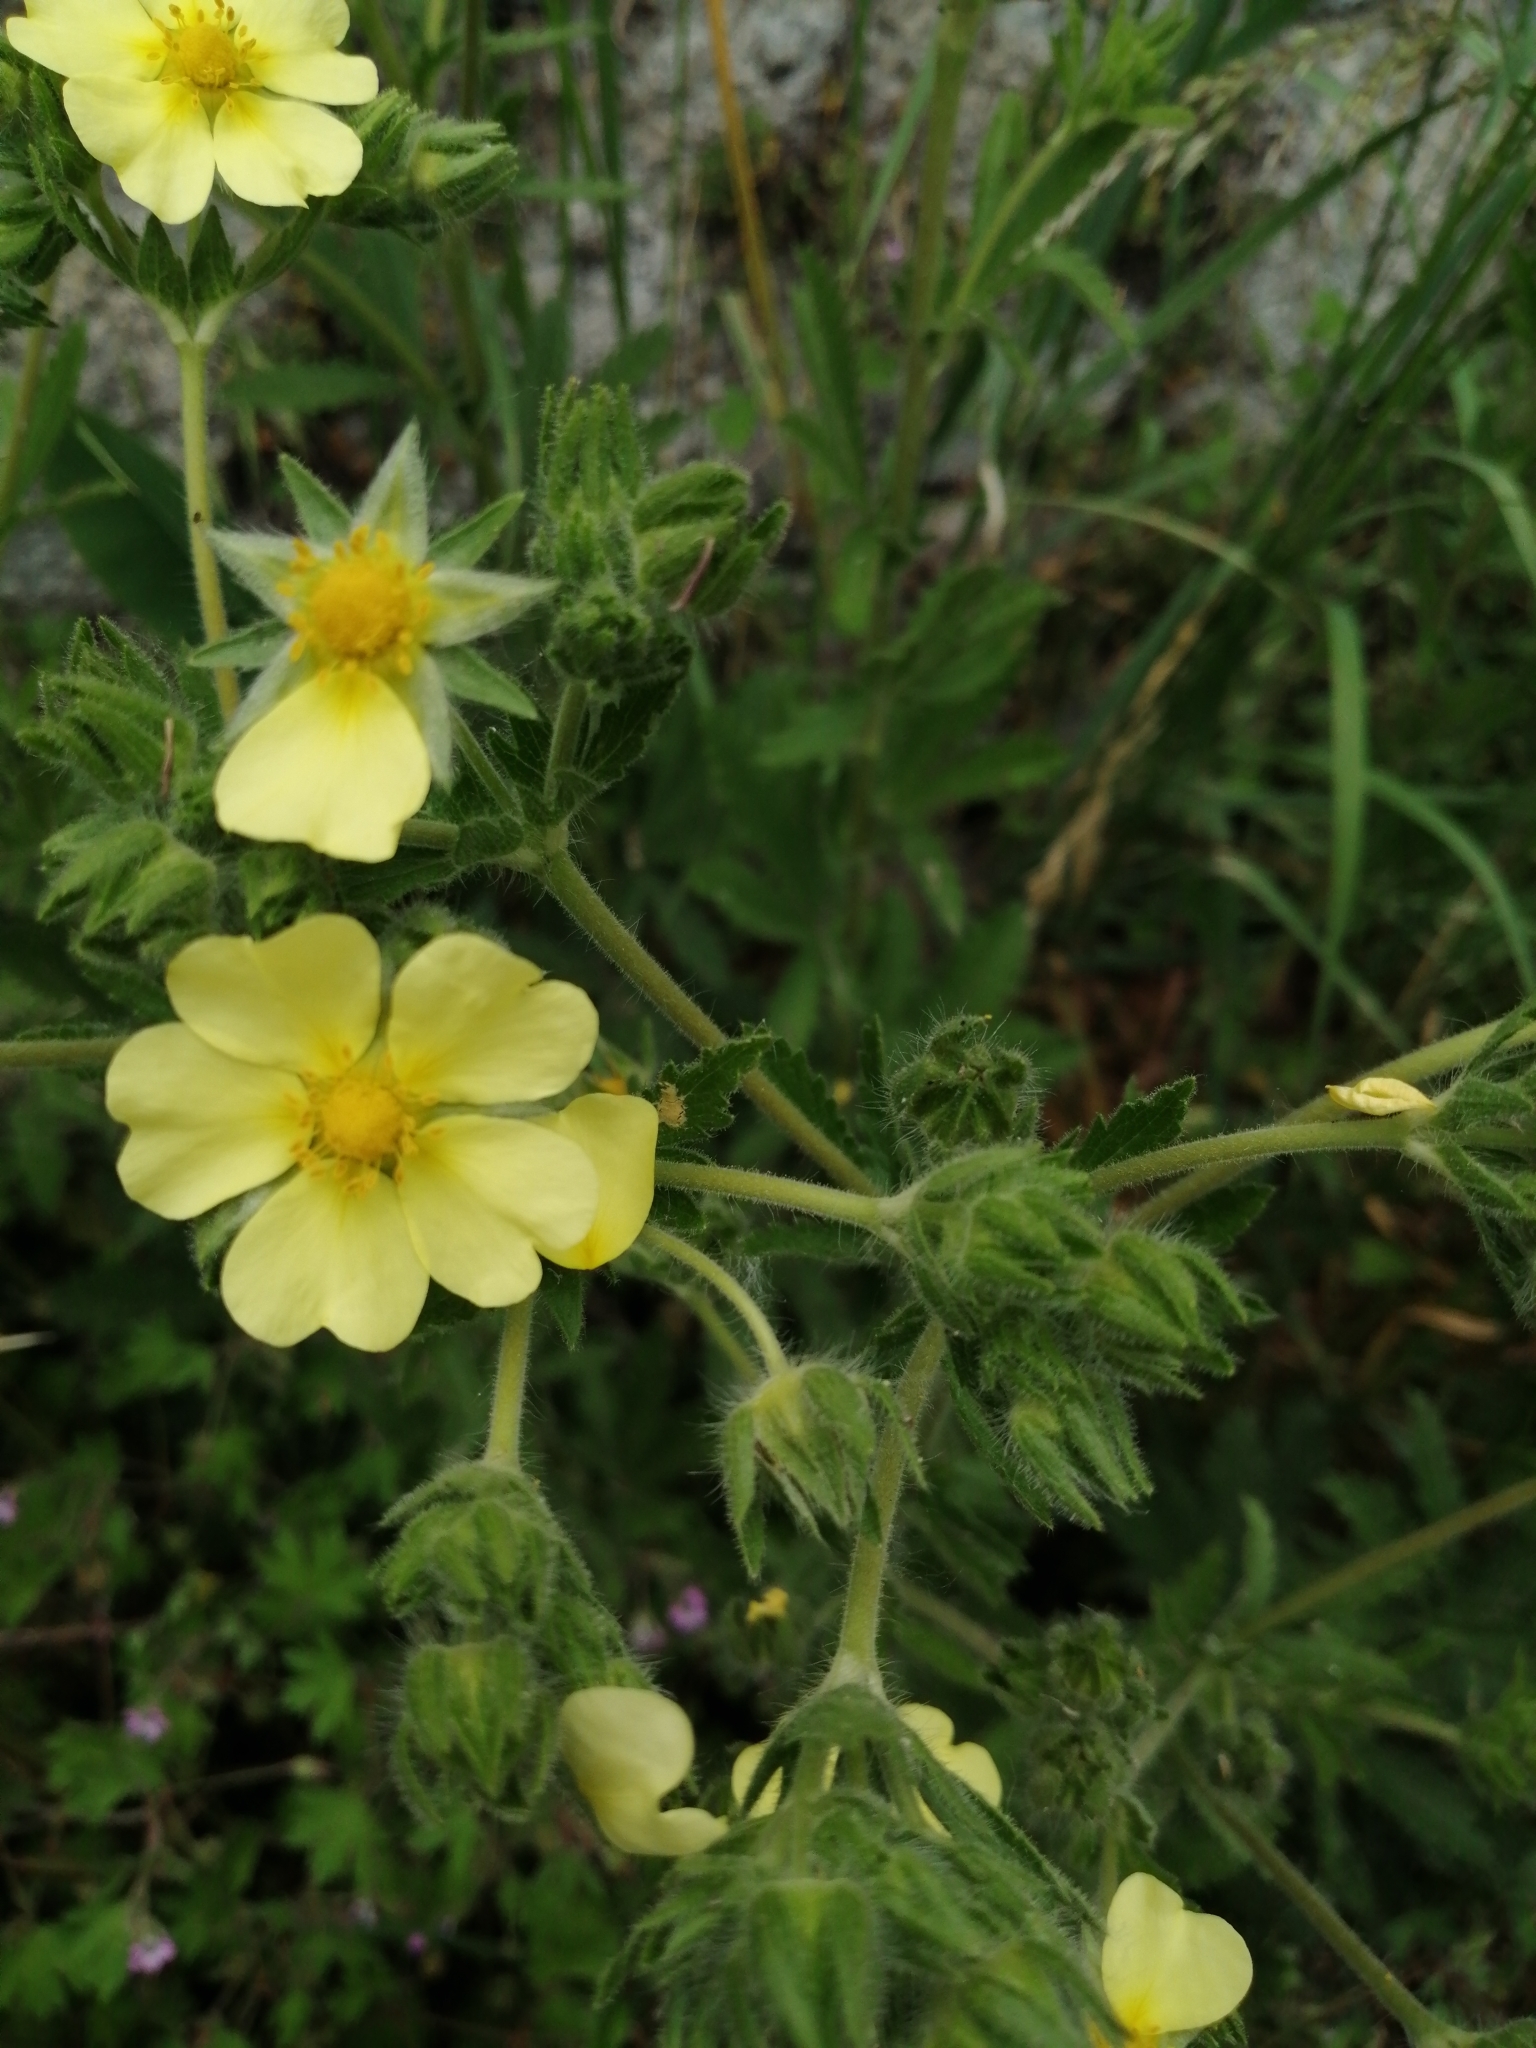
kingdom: Plantae
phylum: Tracheophyta
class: Magnoliopsida
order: Rosales
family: Rosaceae
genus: Potentilla
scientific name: Potentilla recta
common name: Sulphur cinquefoil
